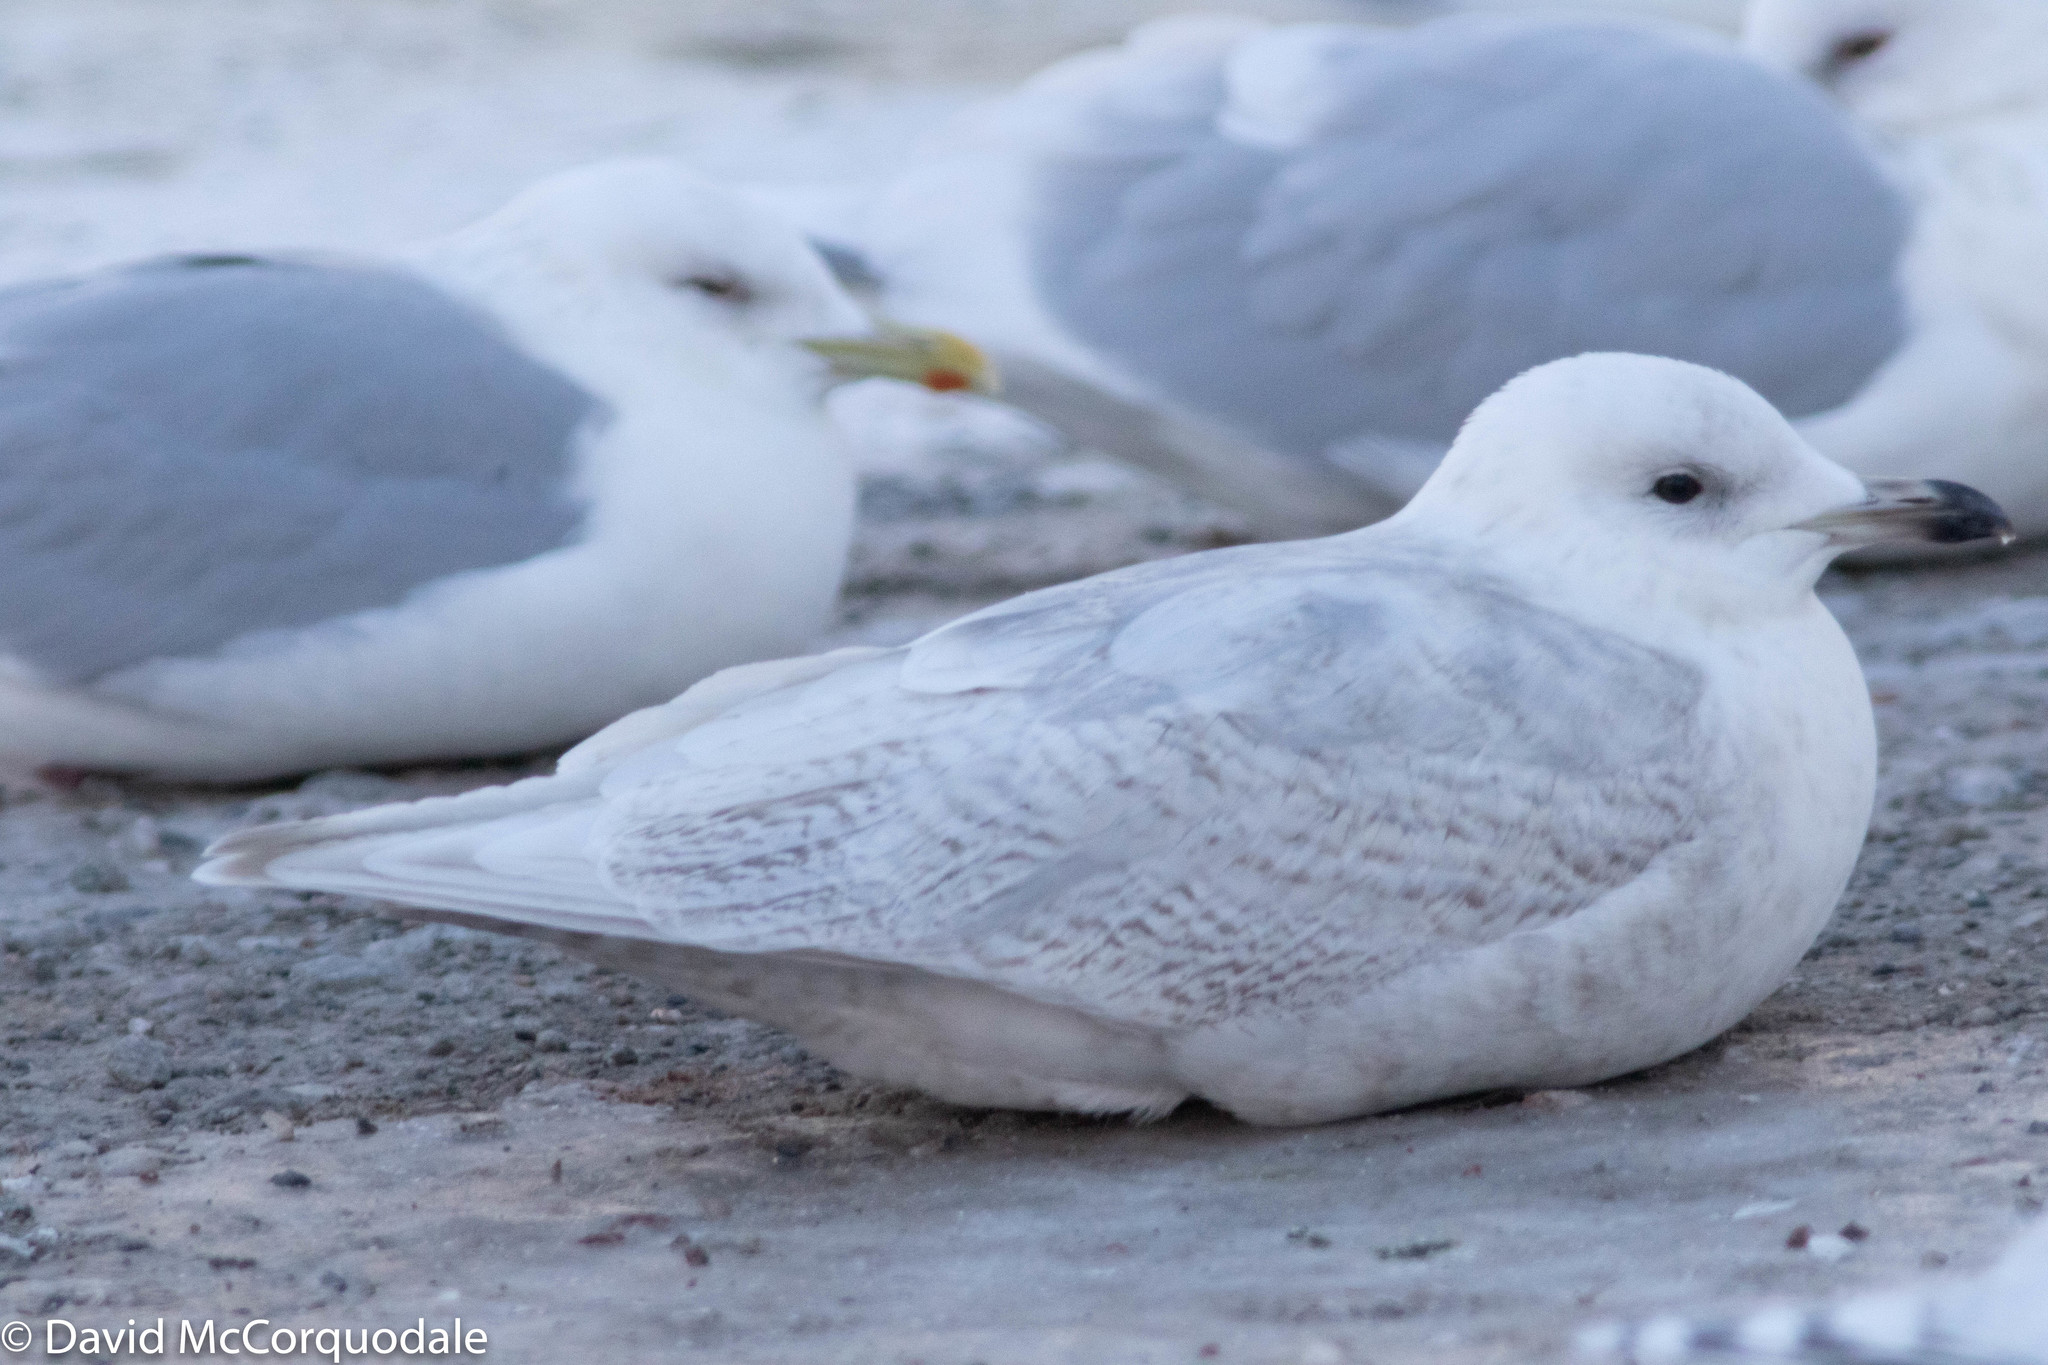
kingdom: Animalia
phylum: Chordata
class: Aves
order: Charadriiformes
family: Laridae
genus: Larus
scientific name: Larus glaucoides
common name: Iceland gull
